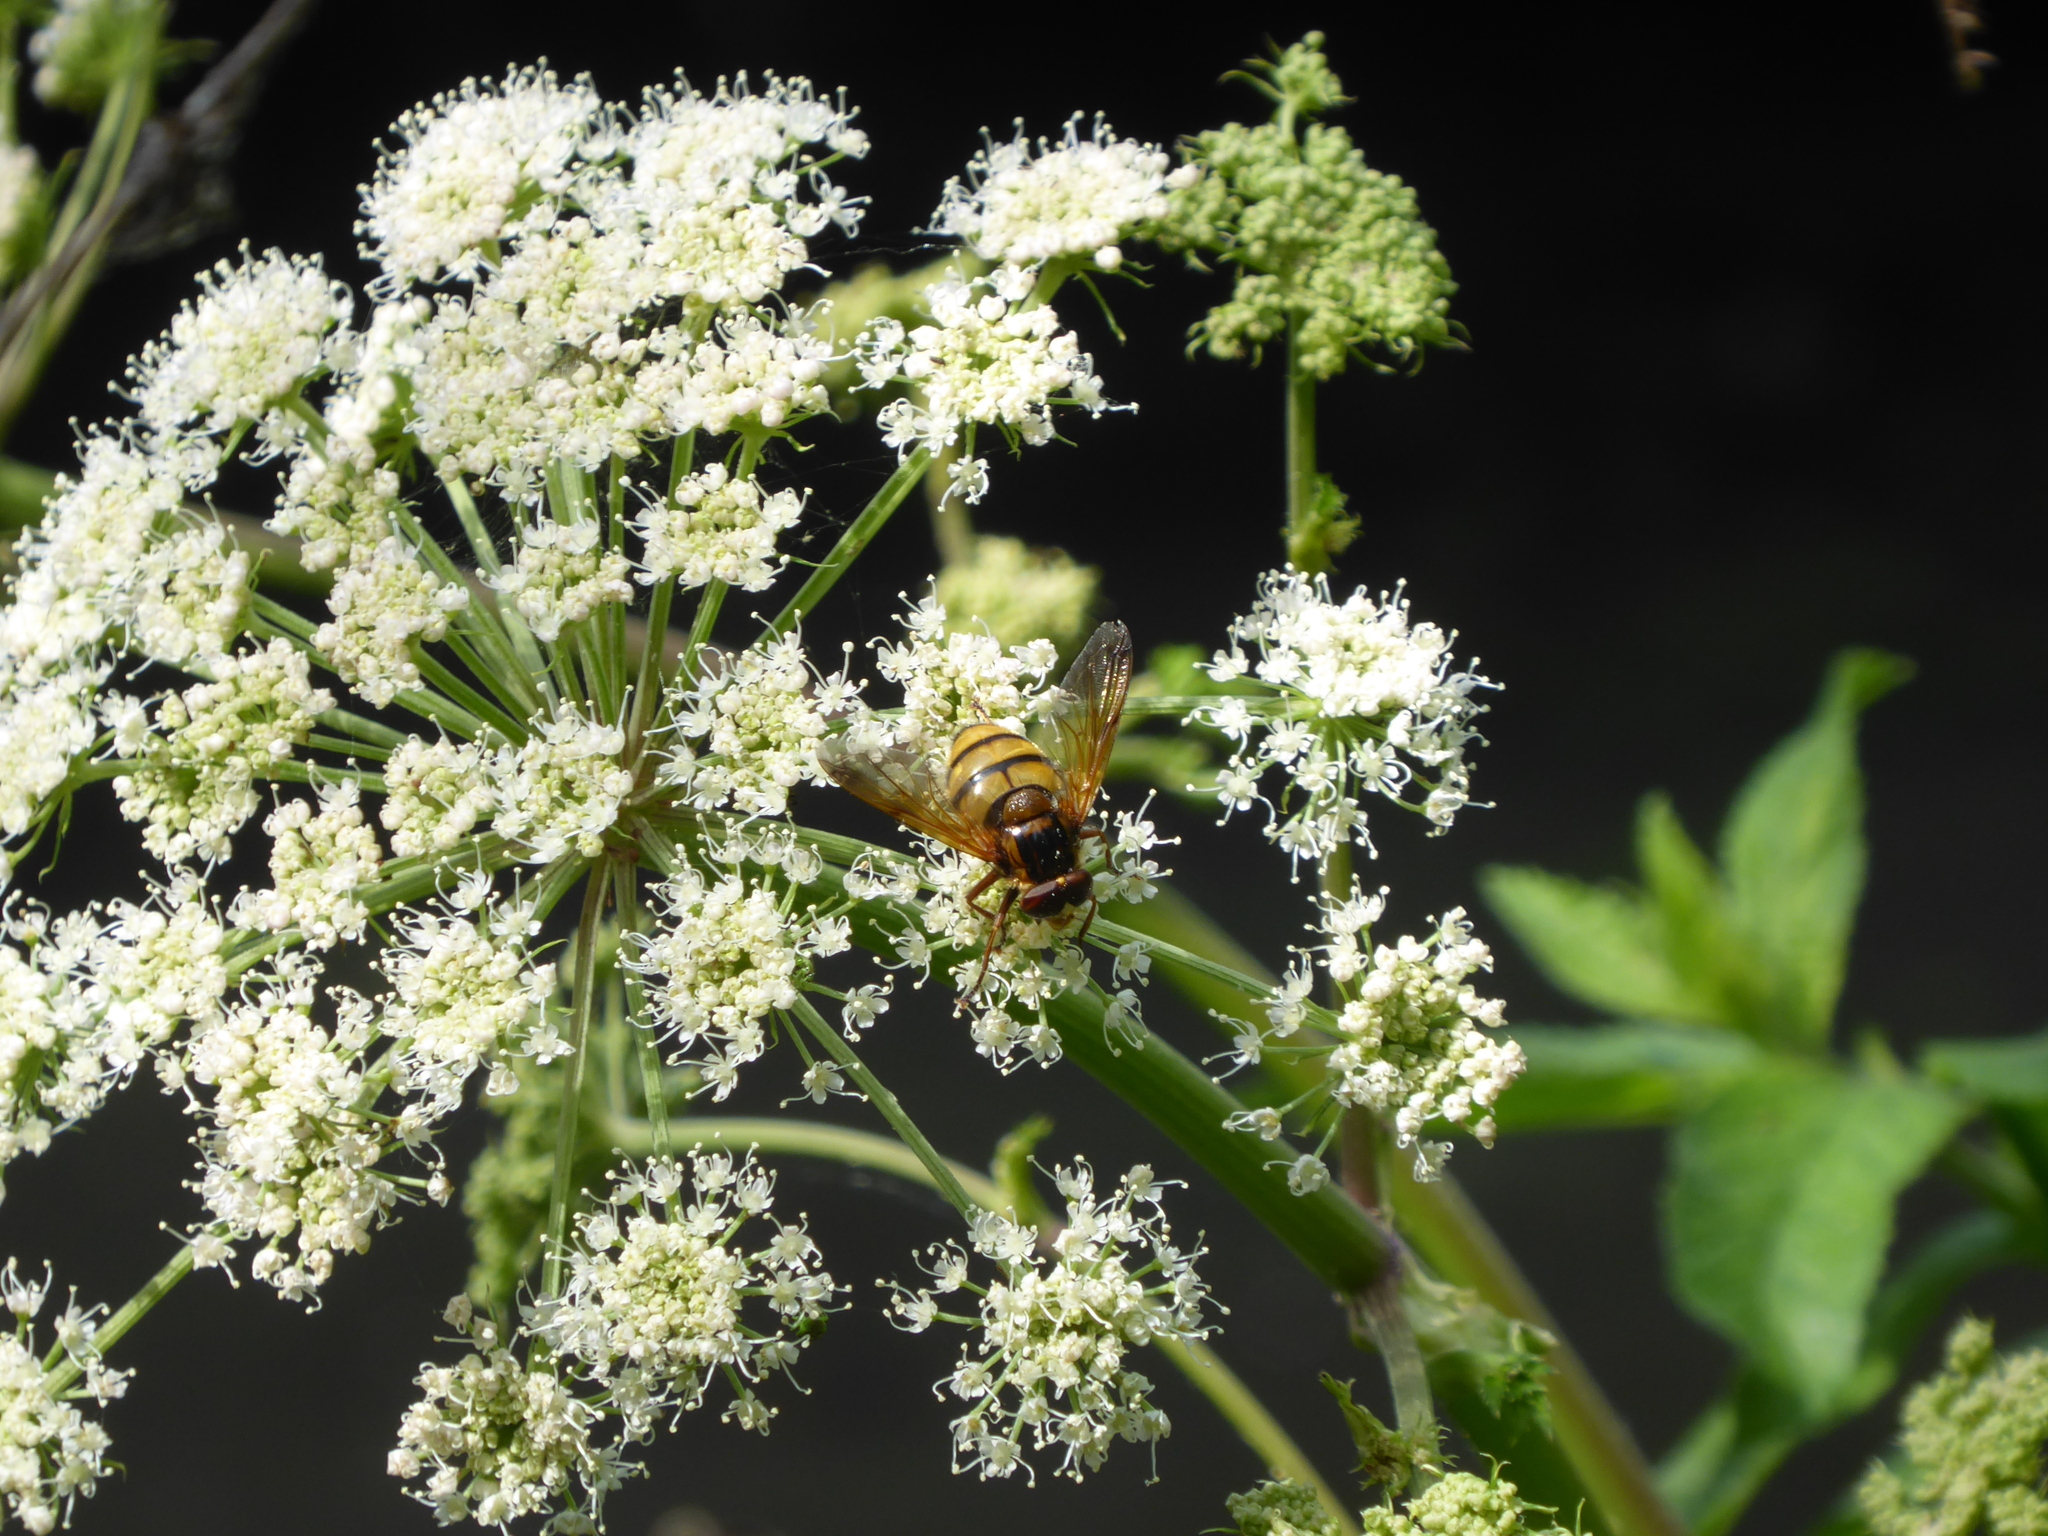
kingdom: Animalia
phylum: Arthropoda
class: Insecta
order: Diptera
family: Syrphidae
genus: Volucella
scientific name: Volucella inanis
